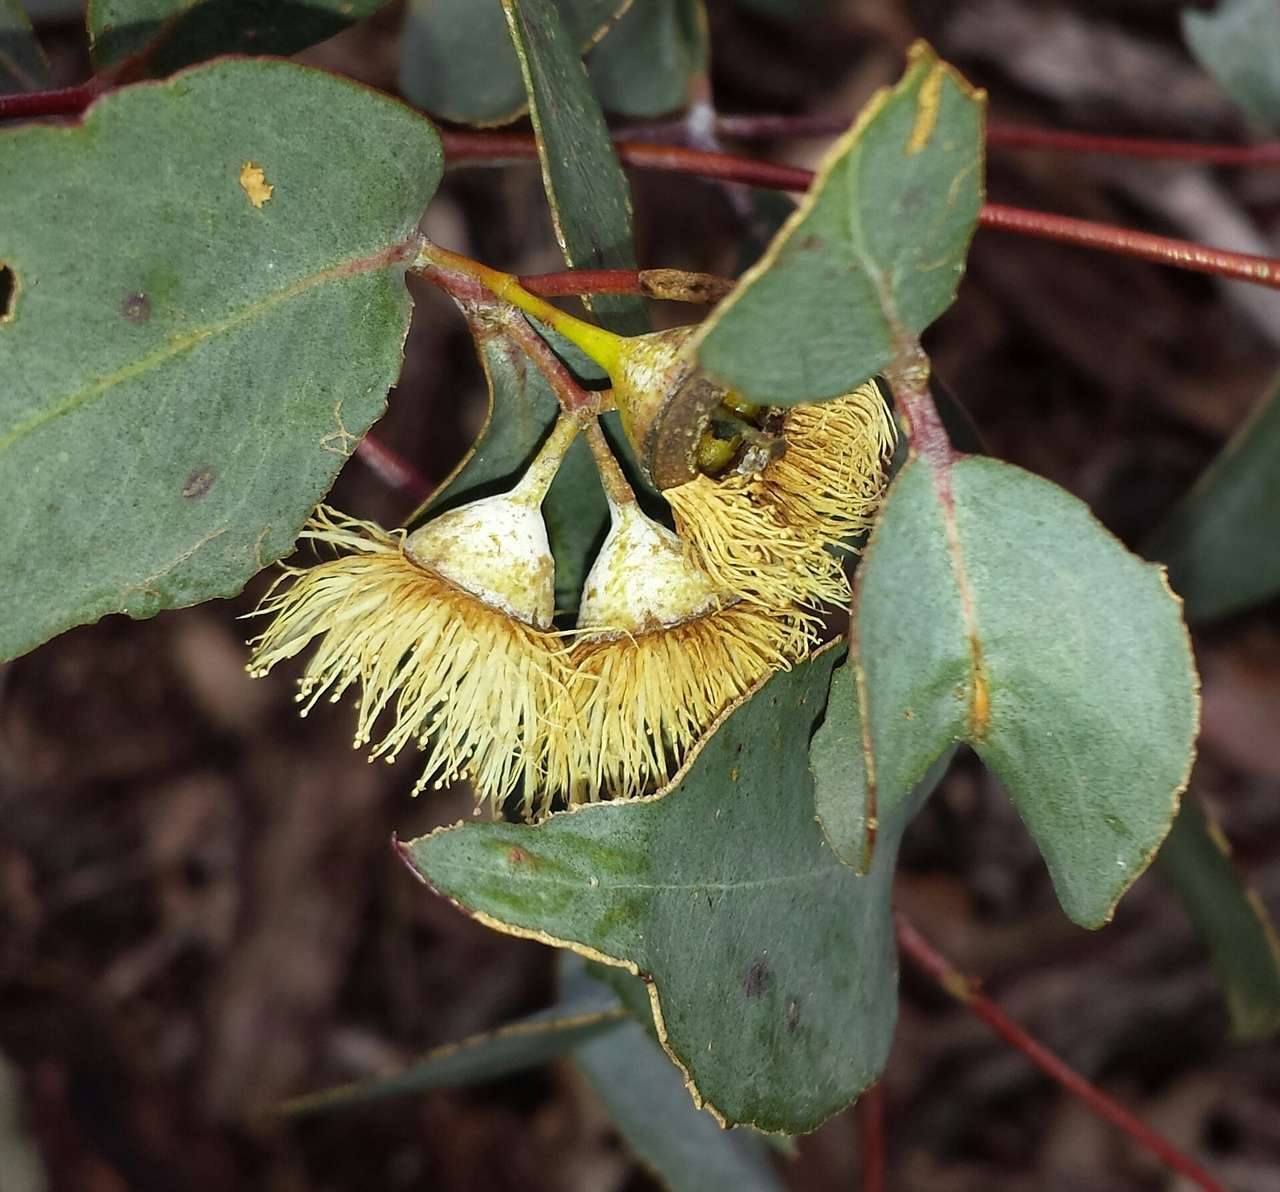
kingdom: Plantae
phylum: Tracheophyta
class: Magnoliopsida
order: Myrtales
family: Myrtaceae
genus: Eucalyptus
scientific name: Eucalyptus leucoxylon
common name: Blue gum
